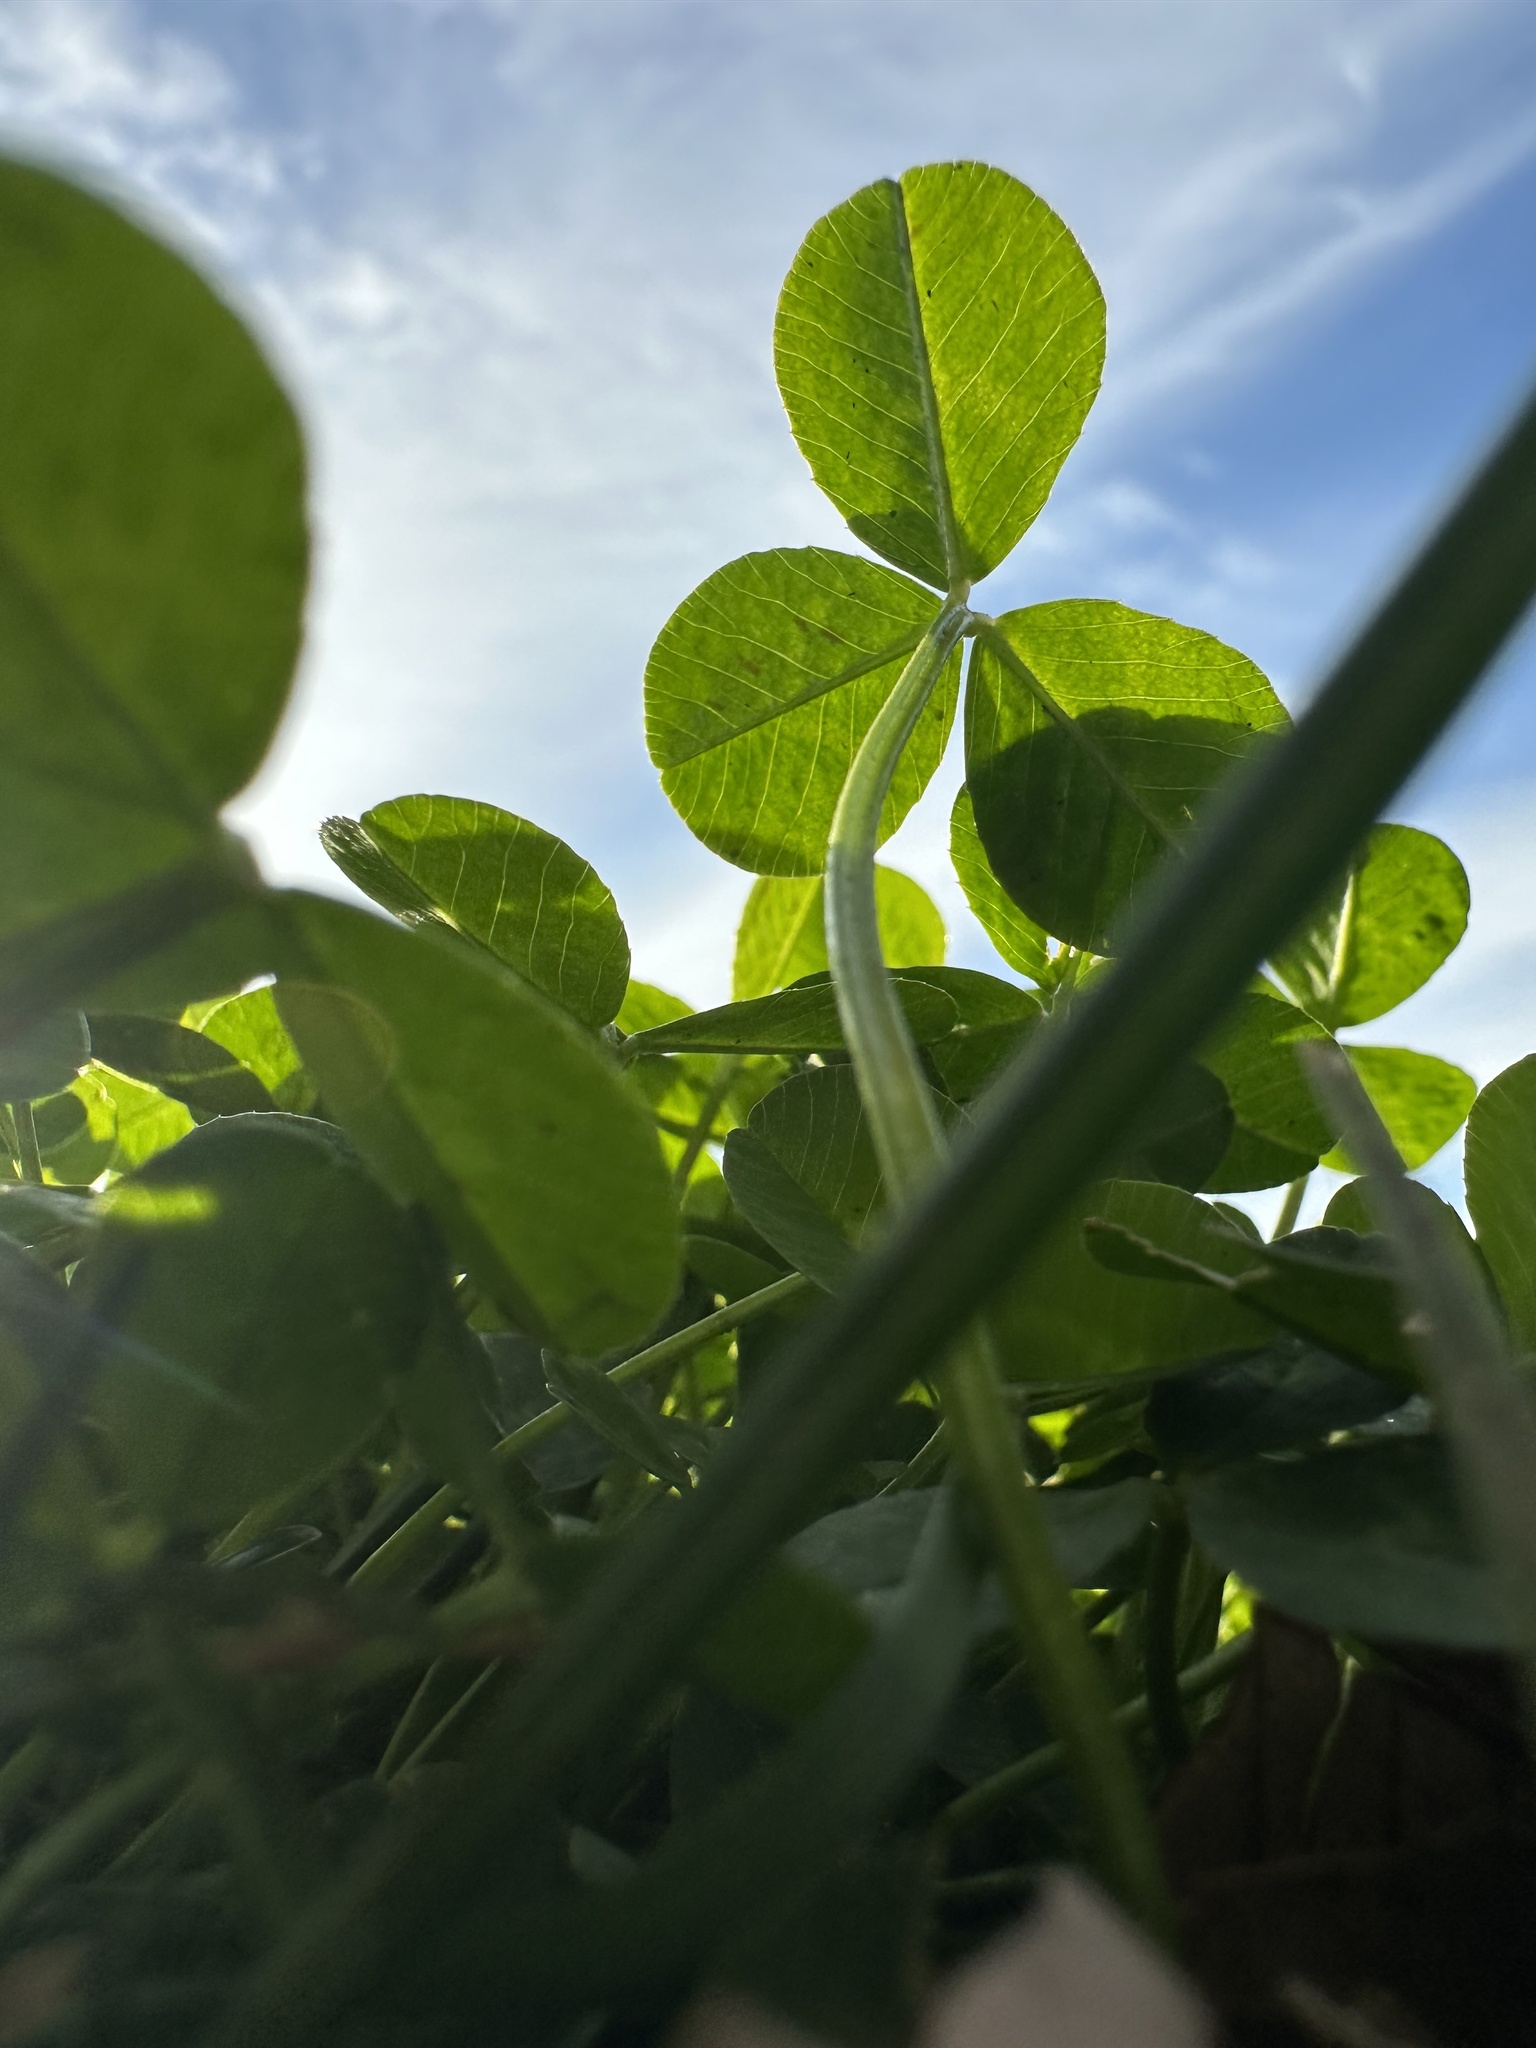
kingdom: Plantae
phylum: Tracheophyta
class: Magnoliopsida
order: Fabales
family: Fabaceae
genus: Trifolium
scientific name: Trifolium repens
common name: White clover
